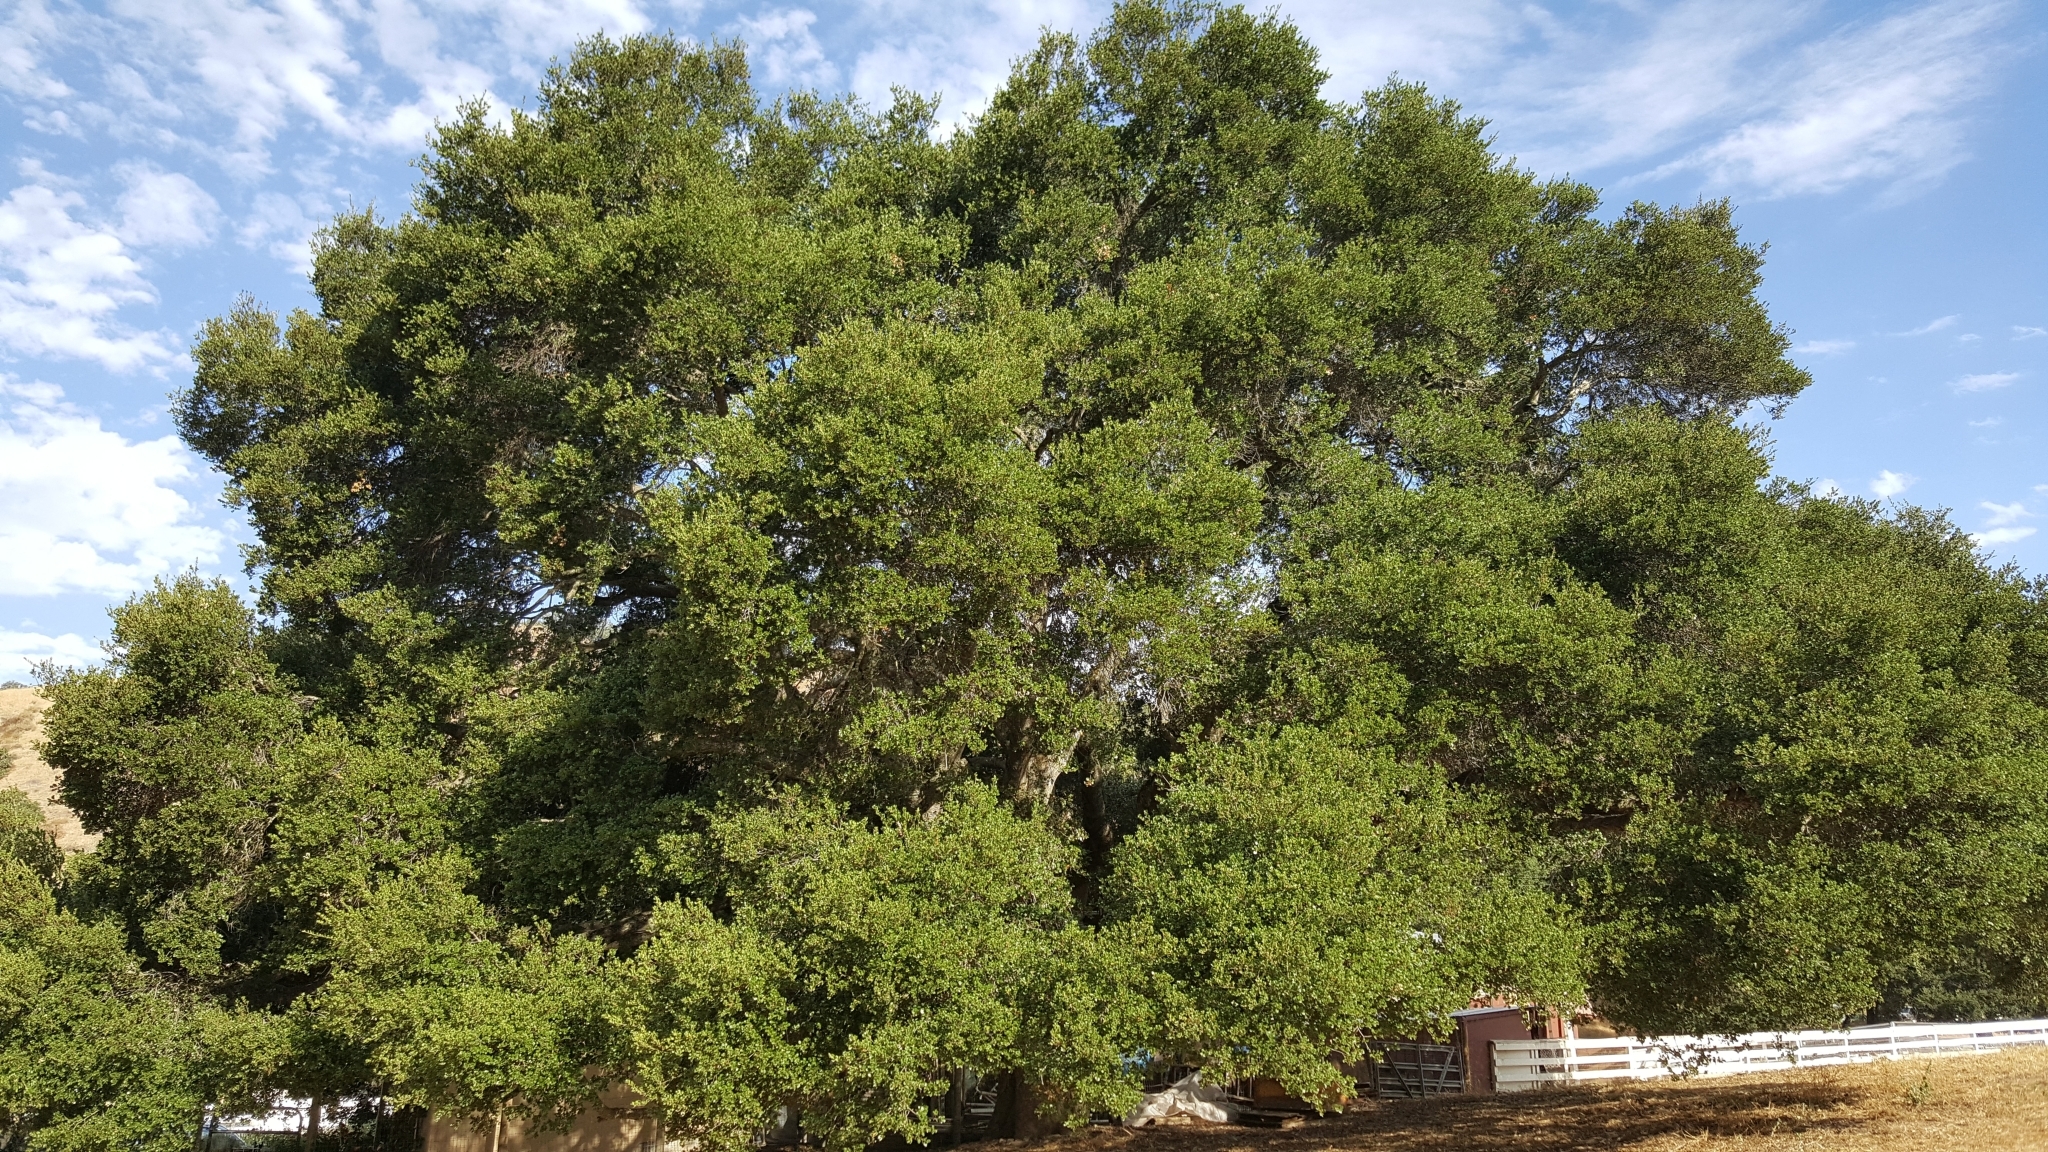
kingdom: Plantae
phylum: Tracheophyta
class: Magnoliopsida
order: Fagales
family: Fagaceae
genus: Quercus
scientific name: Quercus agrifolia
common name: California live oak
